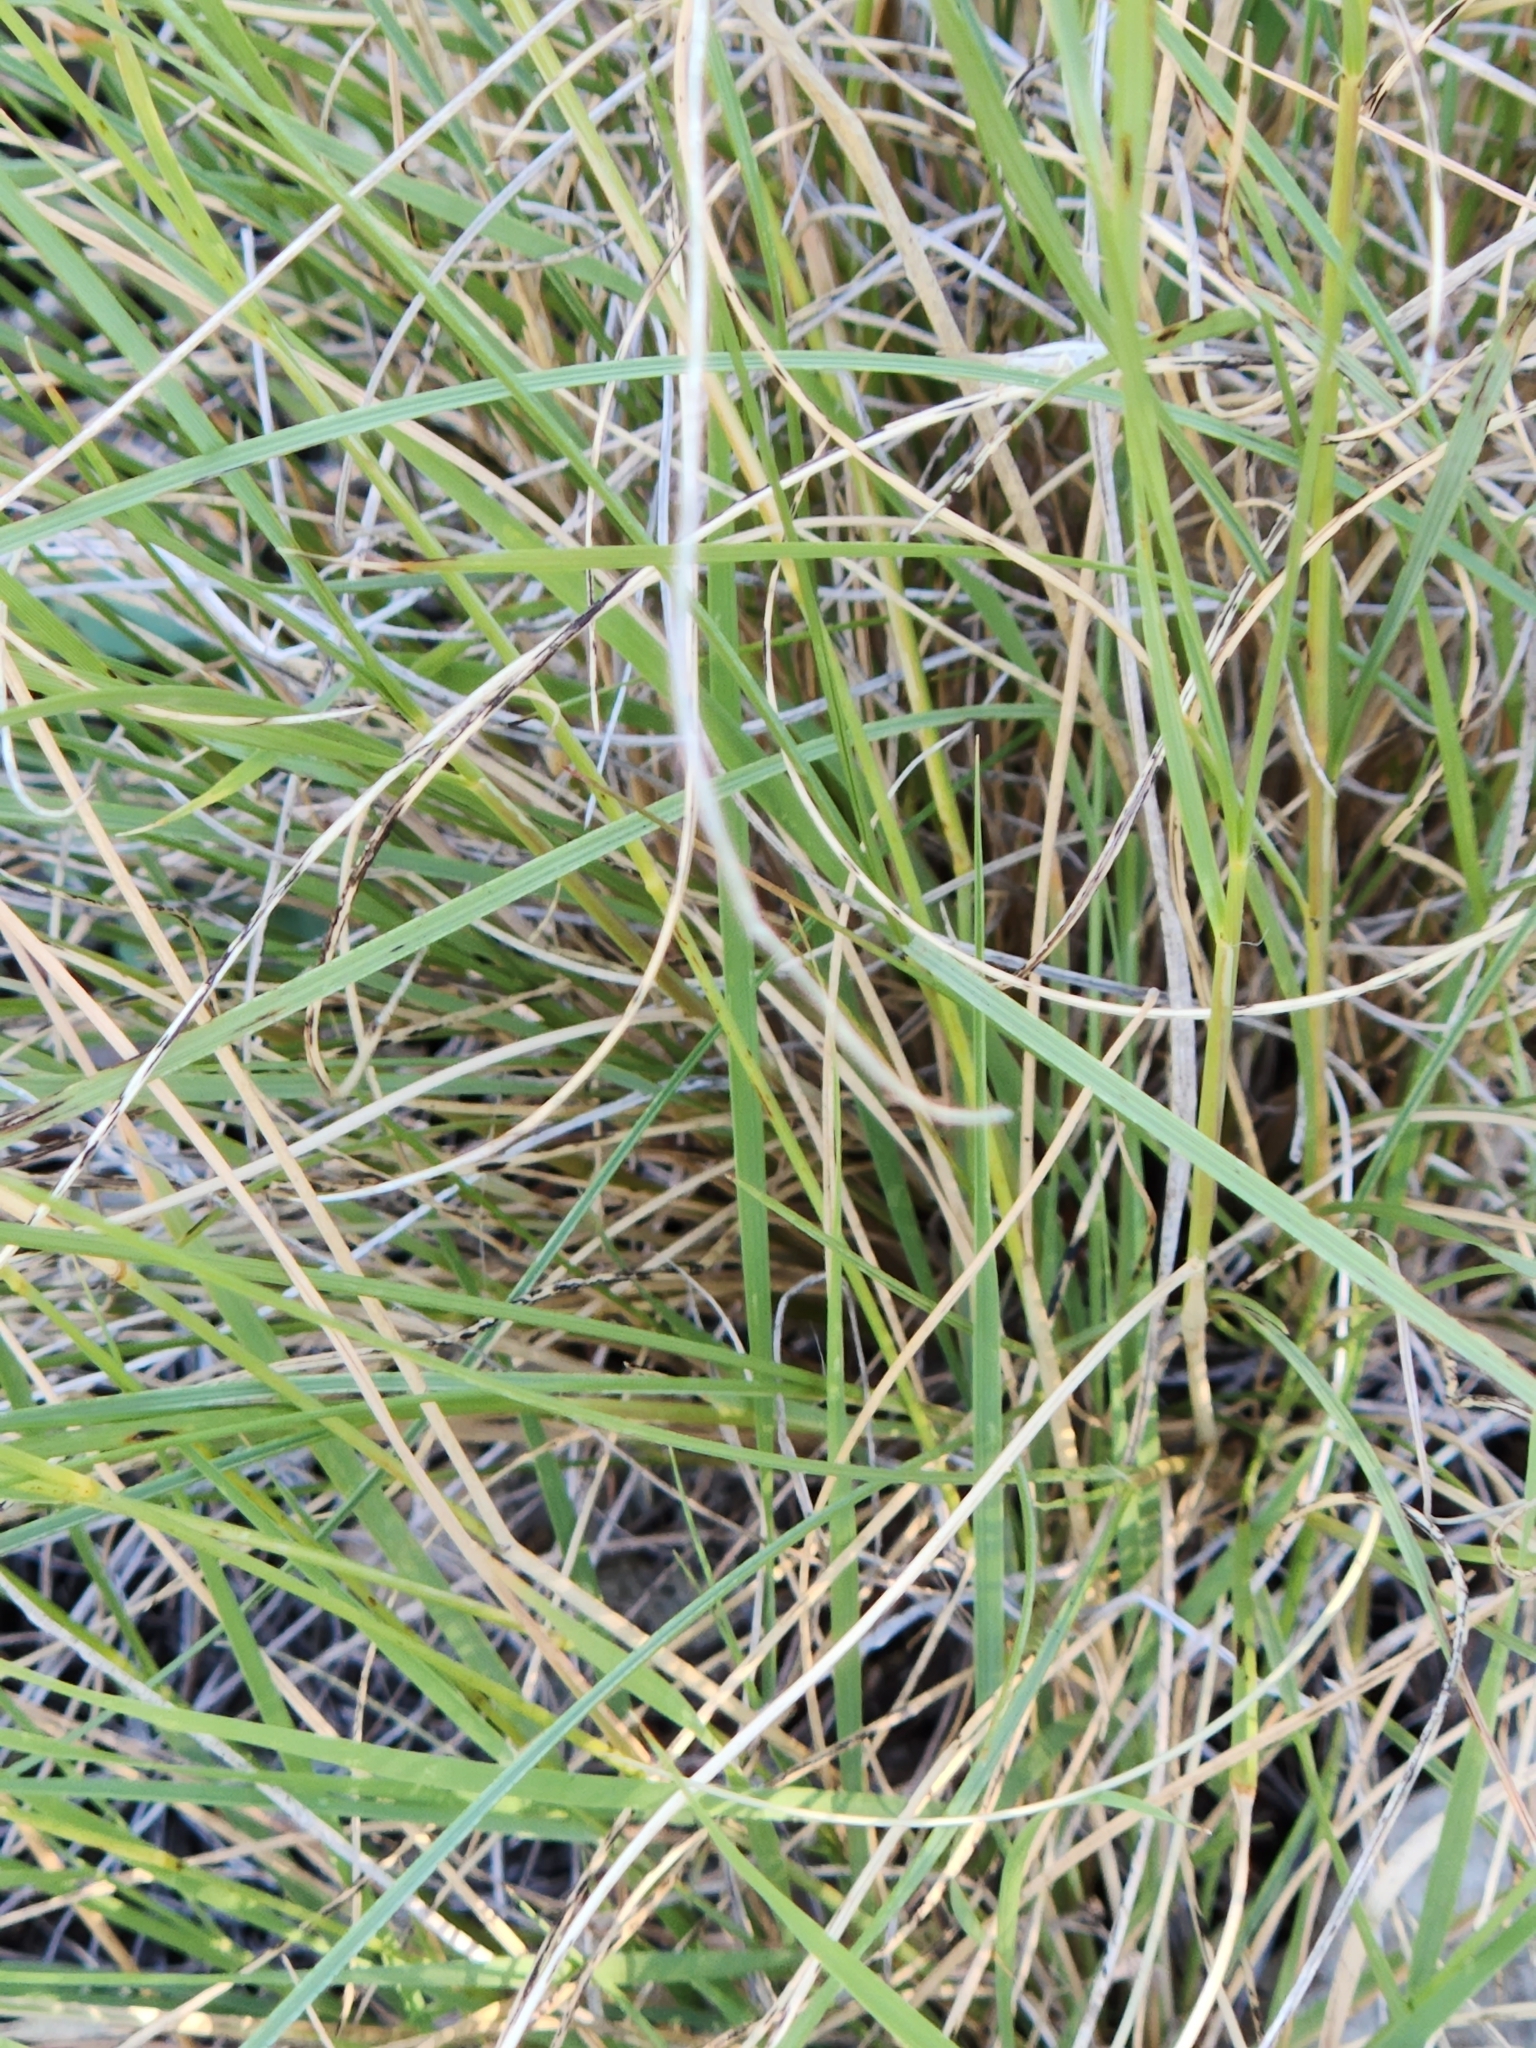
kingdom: Plantae
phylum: Tracheophyta
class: Liliopsida
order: Poales
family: Poaceae
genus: Bouteloua
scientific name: Bouteloua uniflora
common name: Neally's grama
